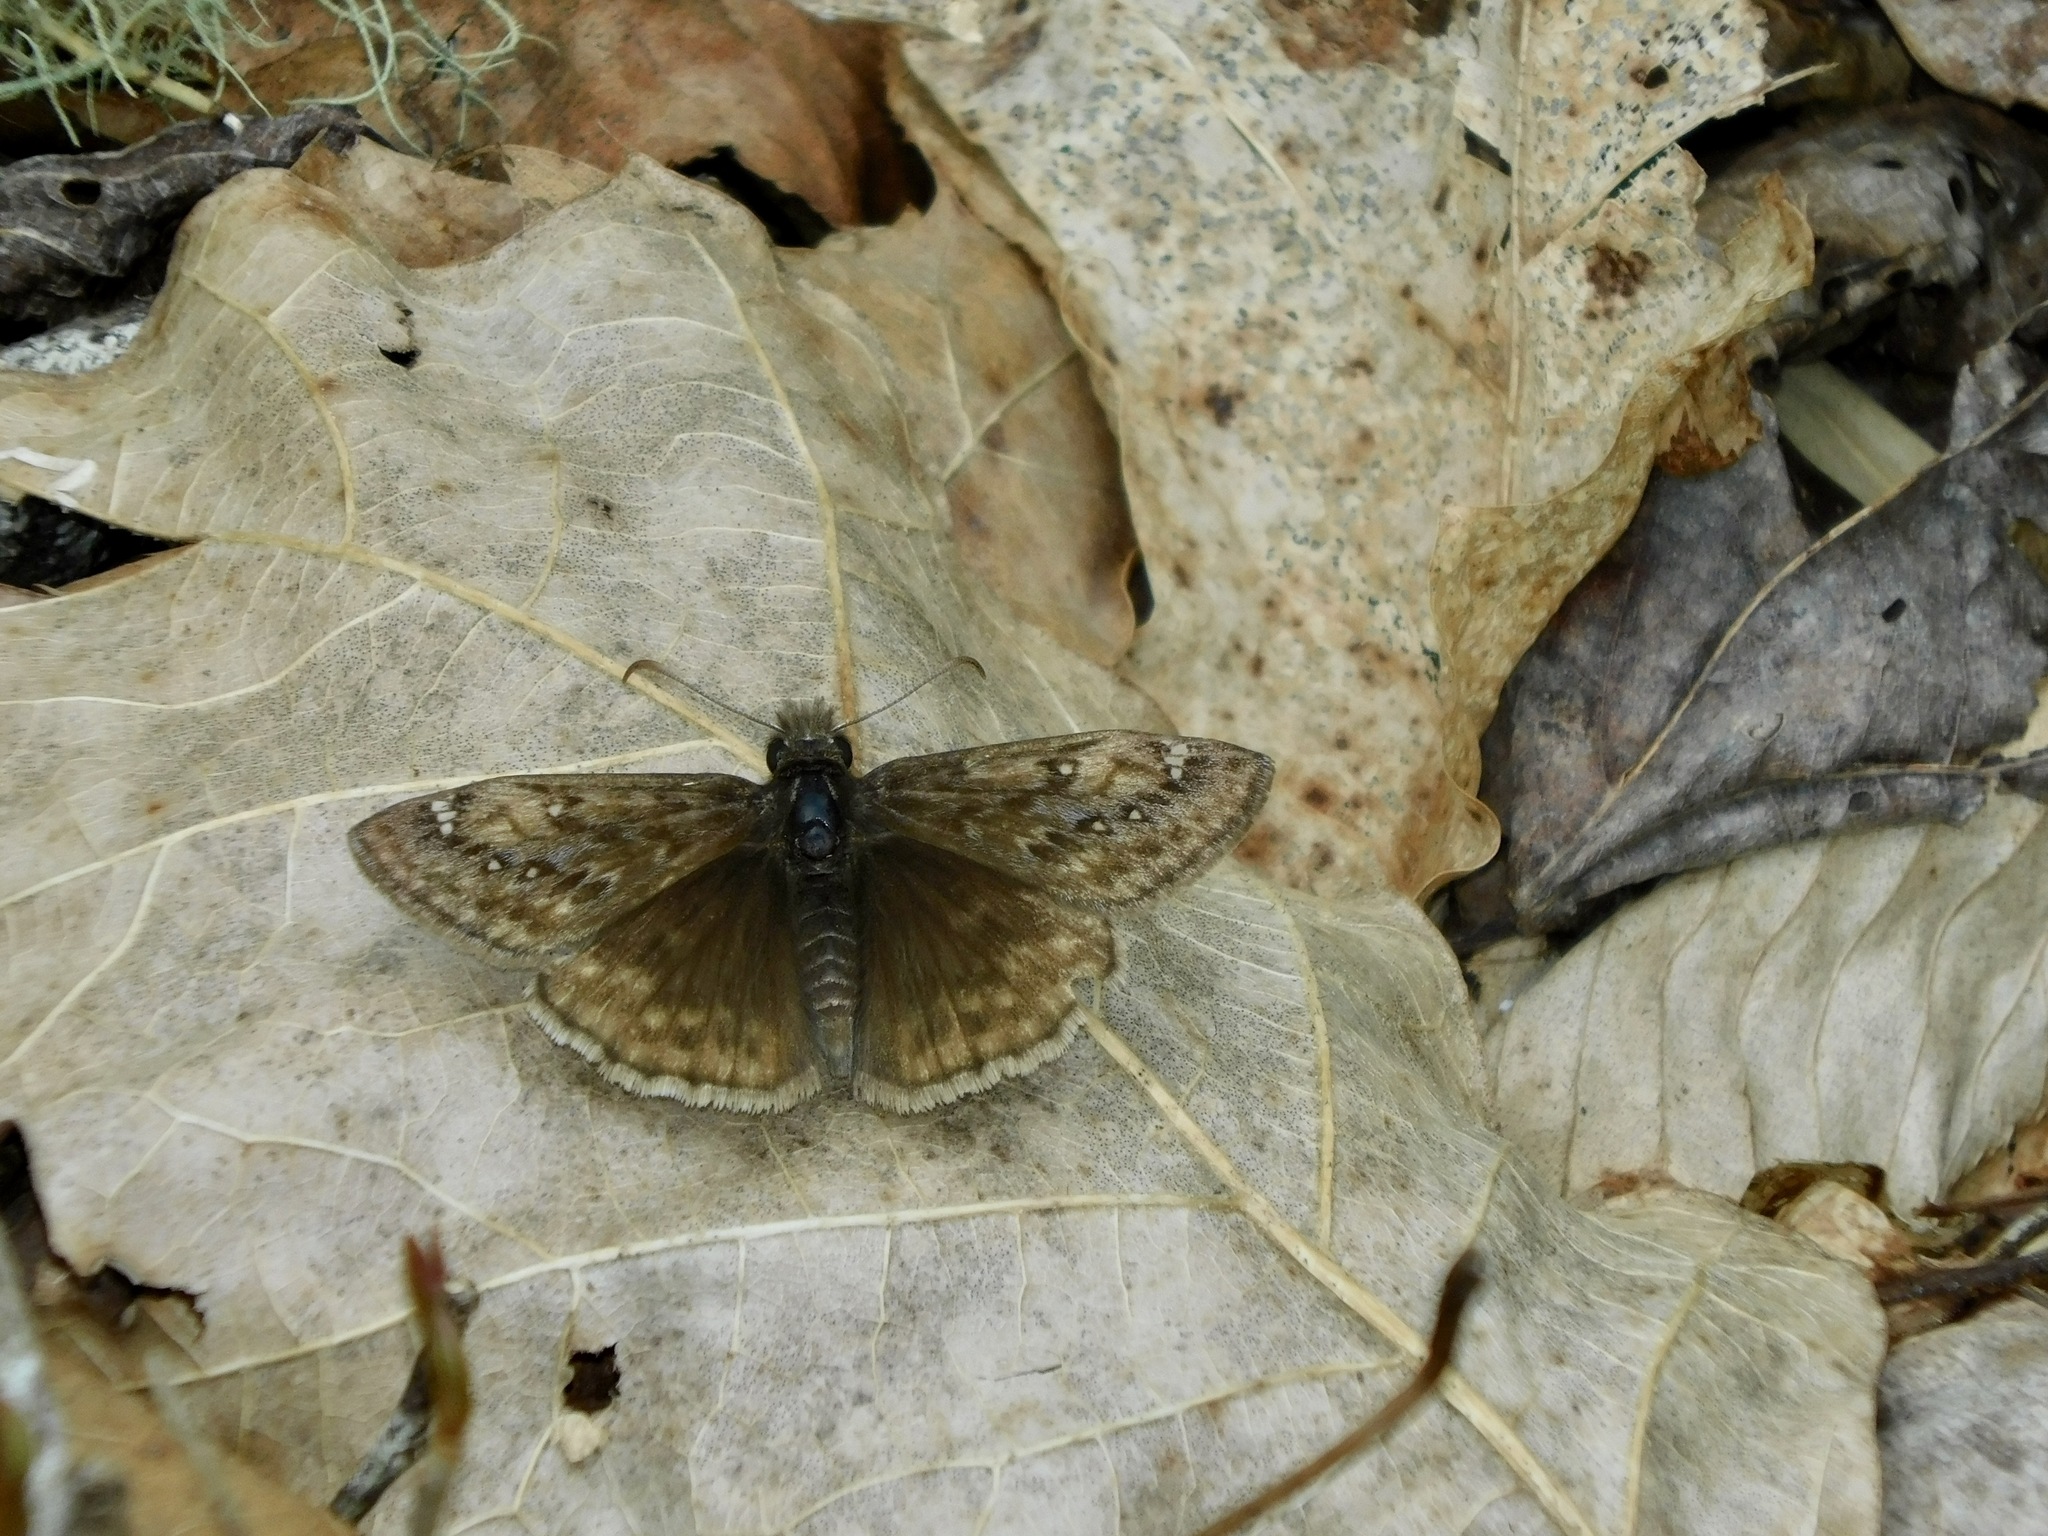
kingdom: Animalia
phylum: Arthropoda
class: Insecta
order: Lepidoptera
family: Hesperiidae
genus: Erynnis
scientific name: Erynnis juvenalis
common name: Juvenal's duskywing
